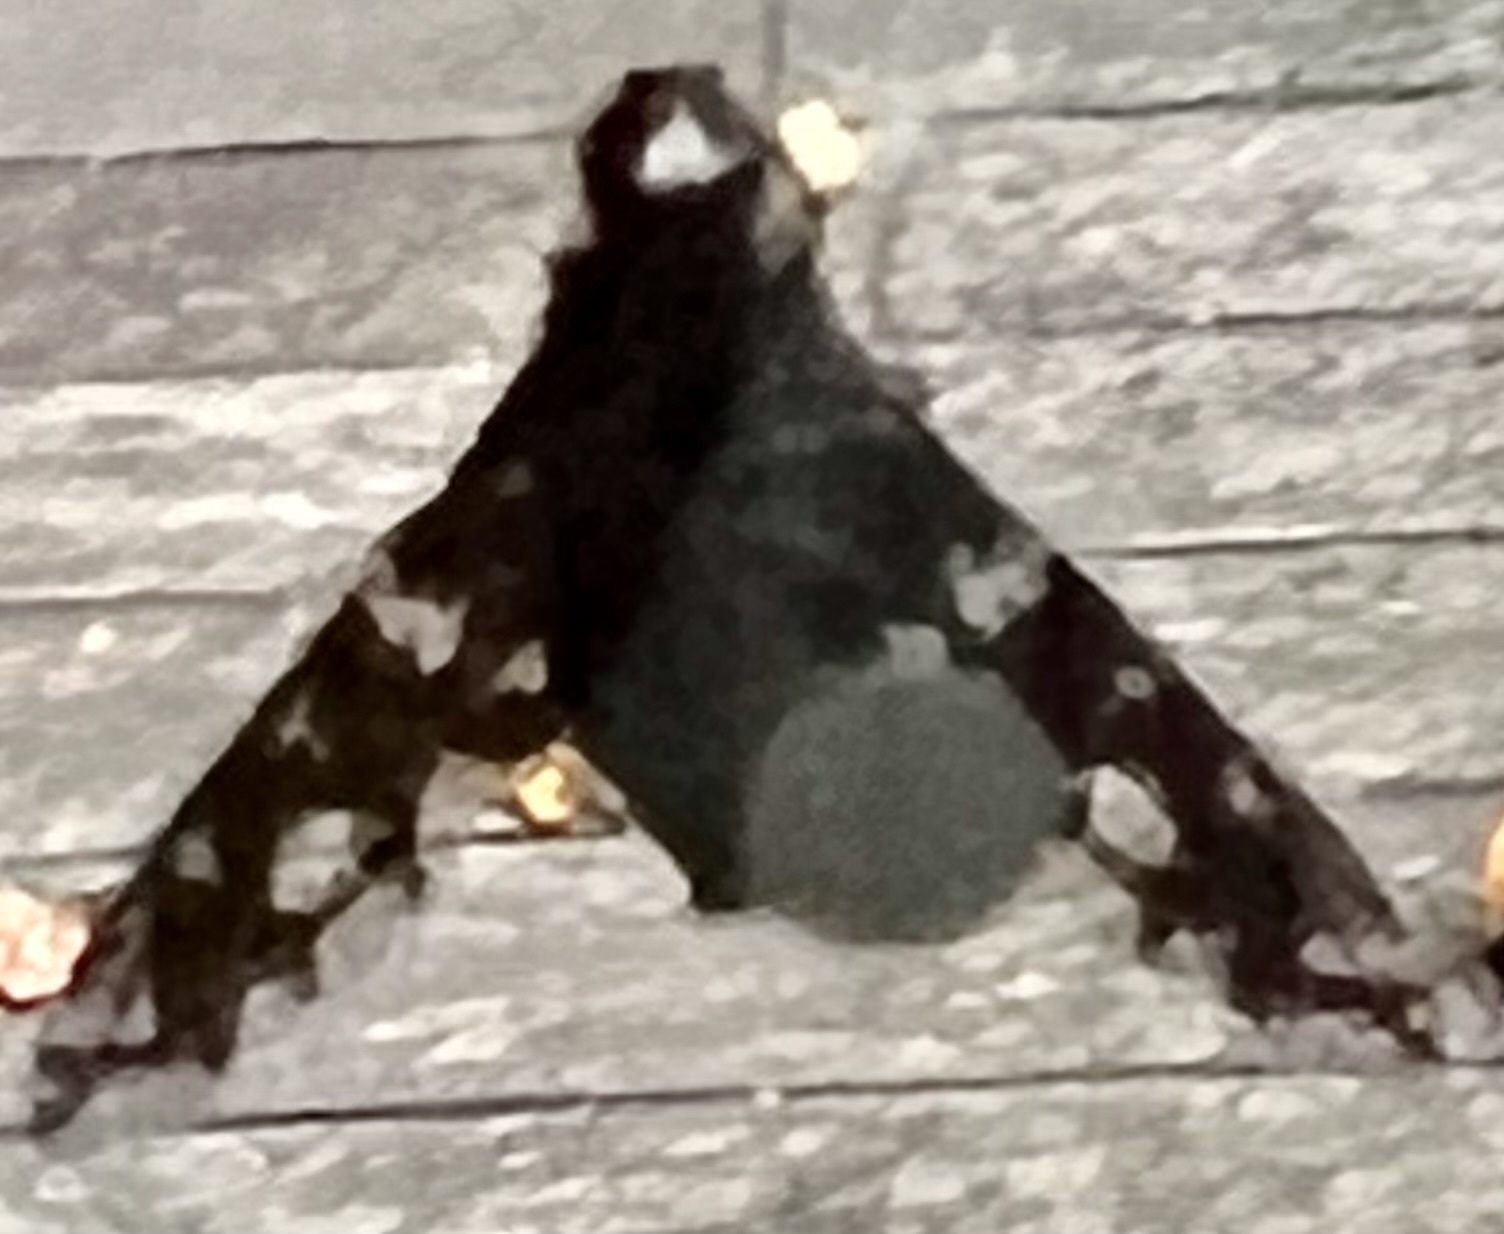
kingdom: Animalia
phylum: Arthropoda
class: Insecta
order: Diptera
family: Bombyliidae
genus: Xenox
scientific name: Xenox tigrinus
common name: Tiger bee fly
